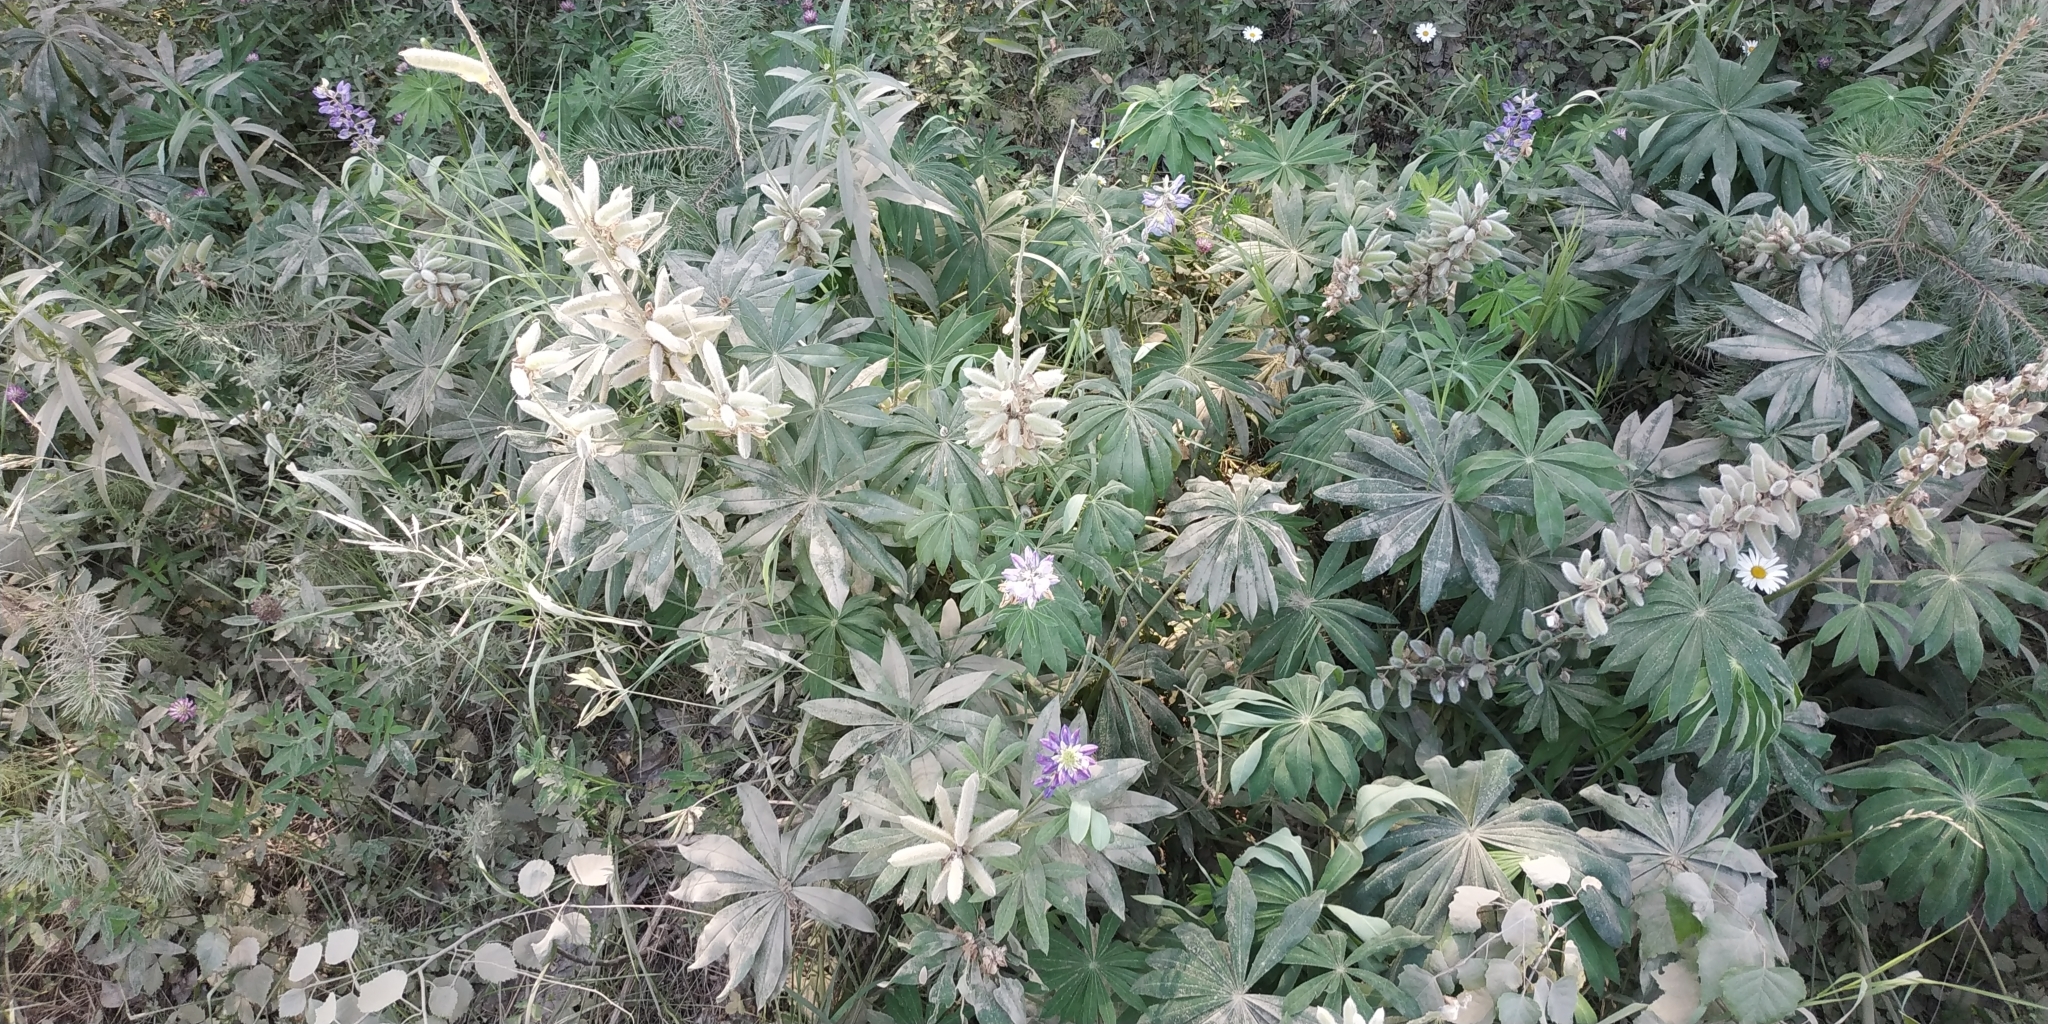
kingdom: Plantae
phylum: Tracheophyta
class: Magnoliopsida
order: Fabales
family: Fabaceae
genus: Lupinus
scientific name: Lupinus polyphyllus
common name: Garden lupin
